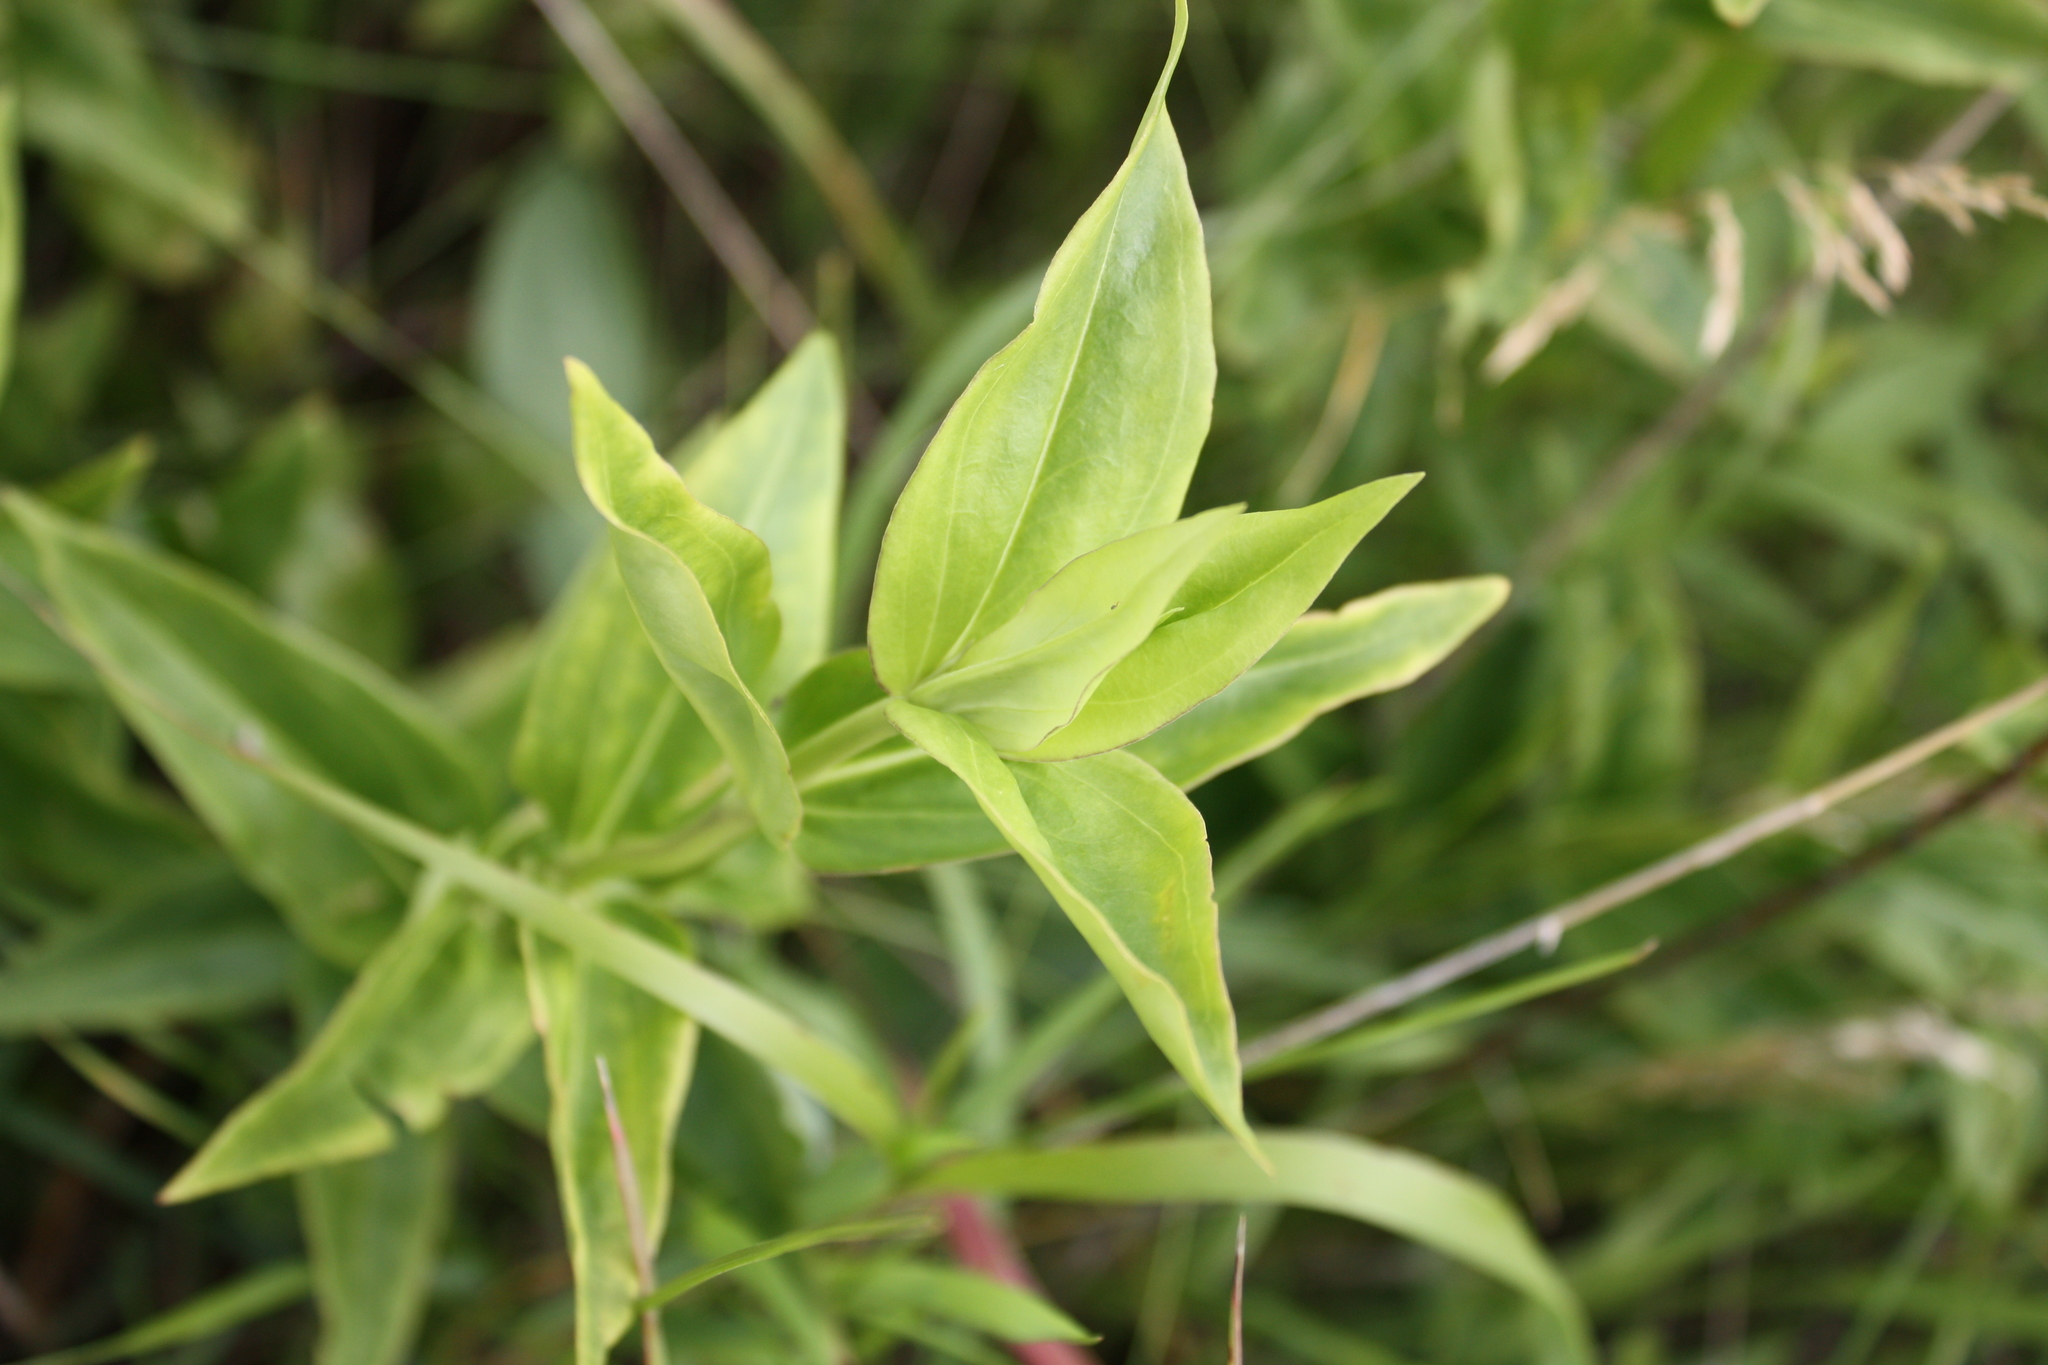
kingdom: Plantae
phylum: Tracheophyta
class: Magnoliopsida
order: Gentianales
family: Gentianaceae
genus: Gentiana
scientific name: Gentiana alba
